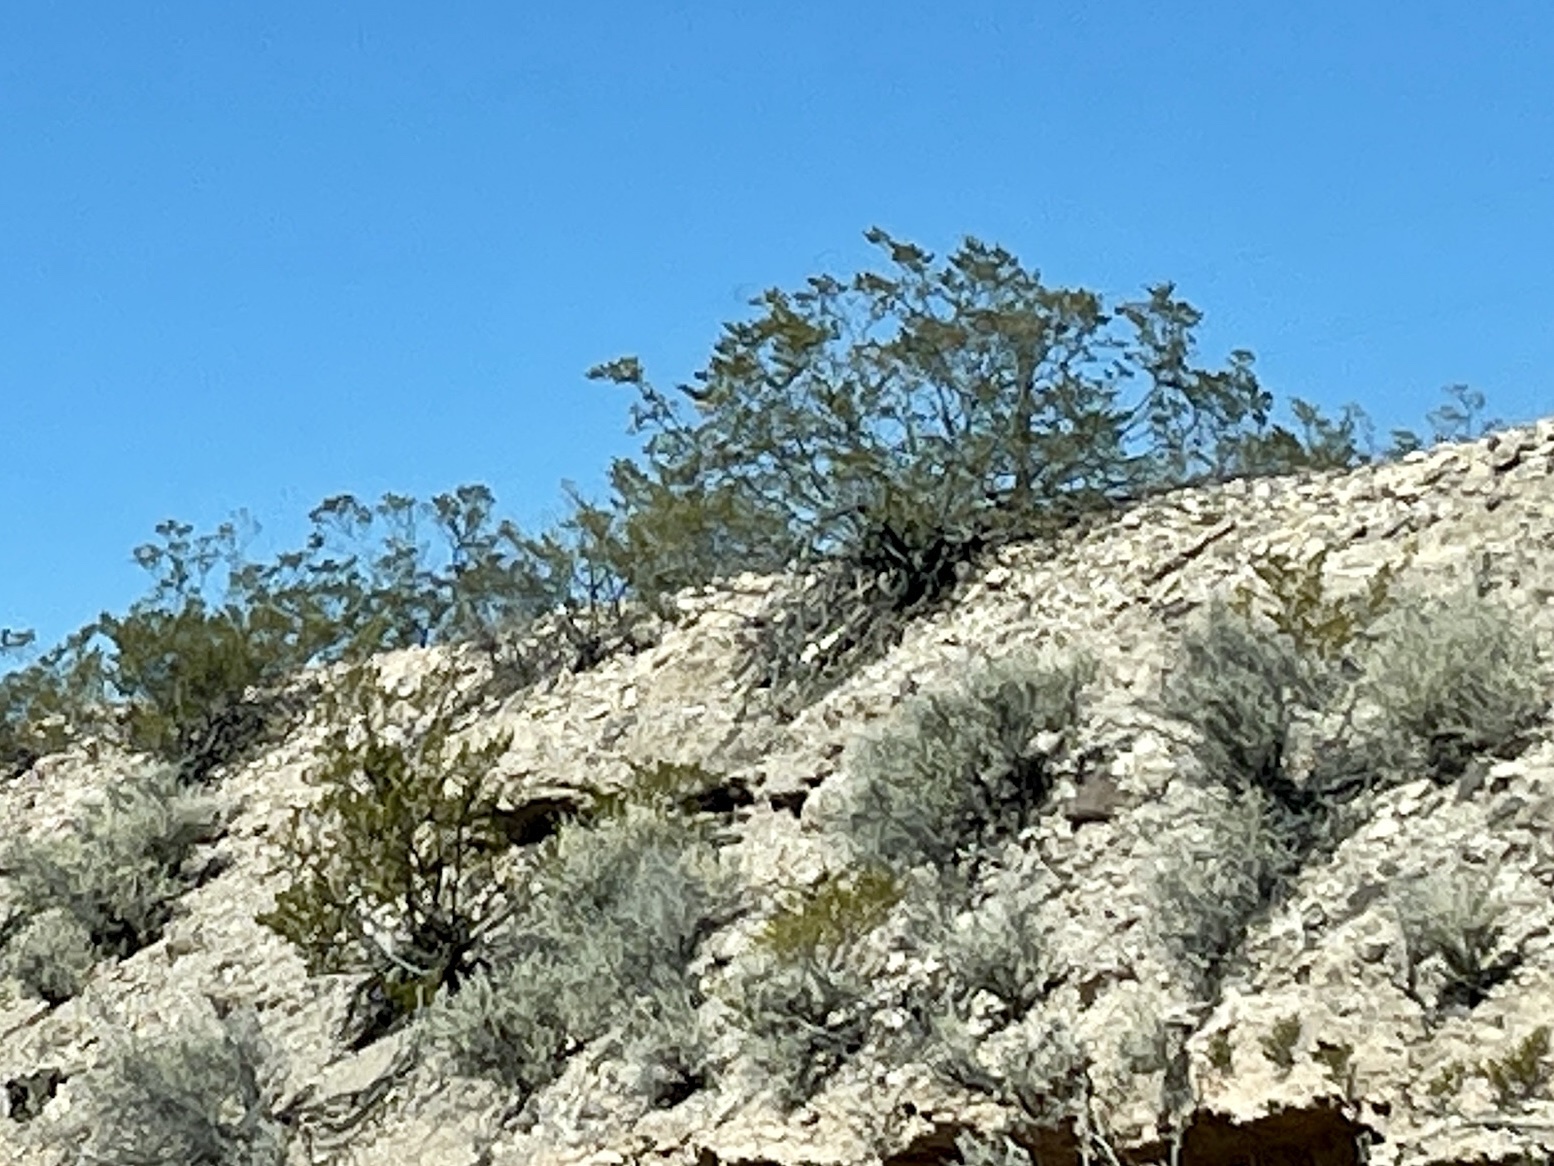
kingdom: Plantae
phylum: Tracheophyta
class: Magnoliopsida
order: Zygophyllales
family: Zygophyllaceae
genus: Larrea
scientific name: Larrea tridentata
